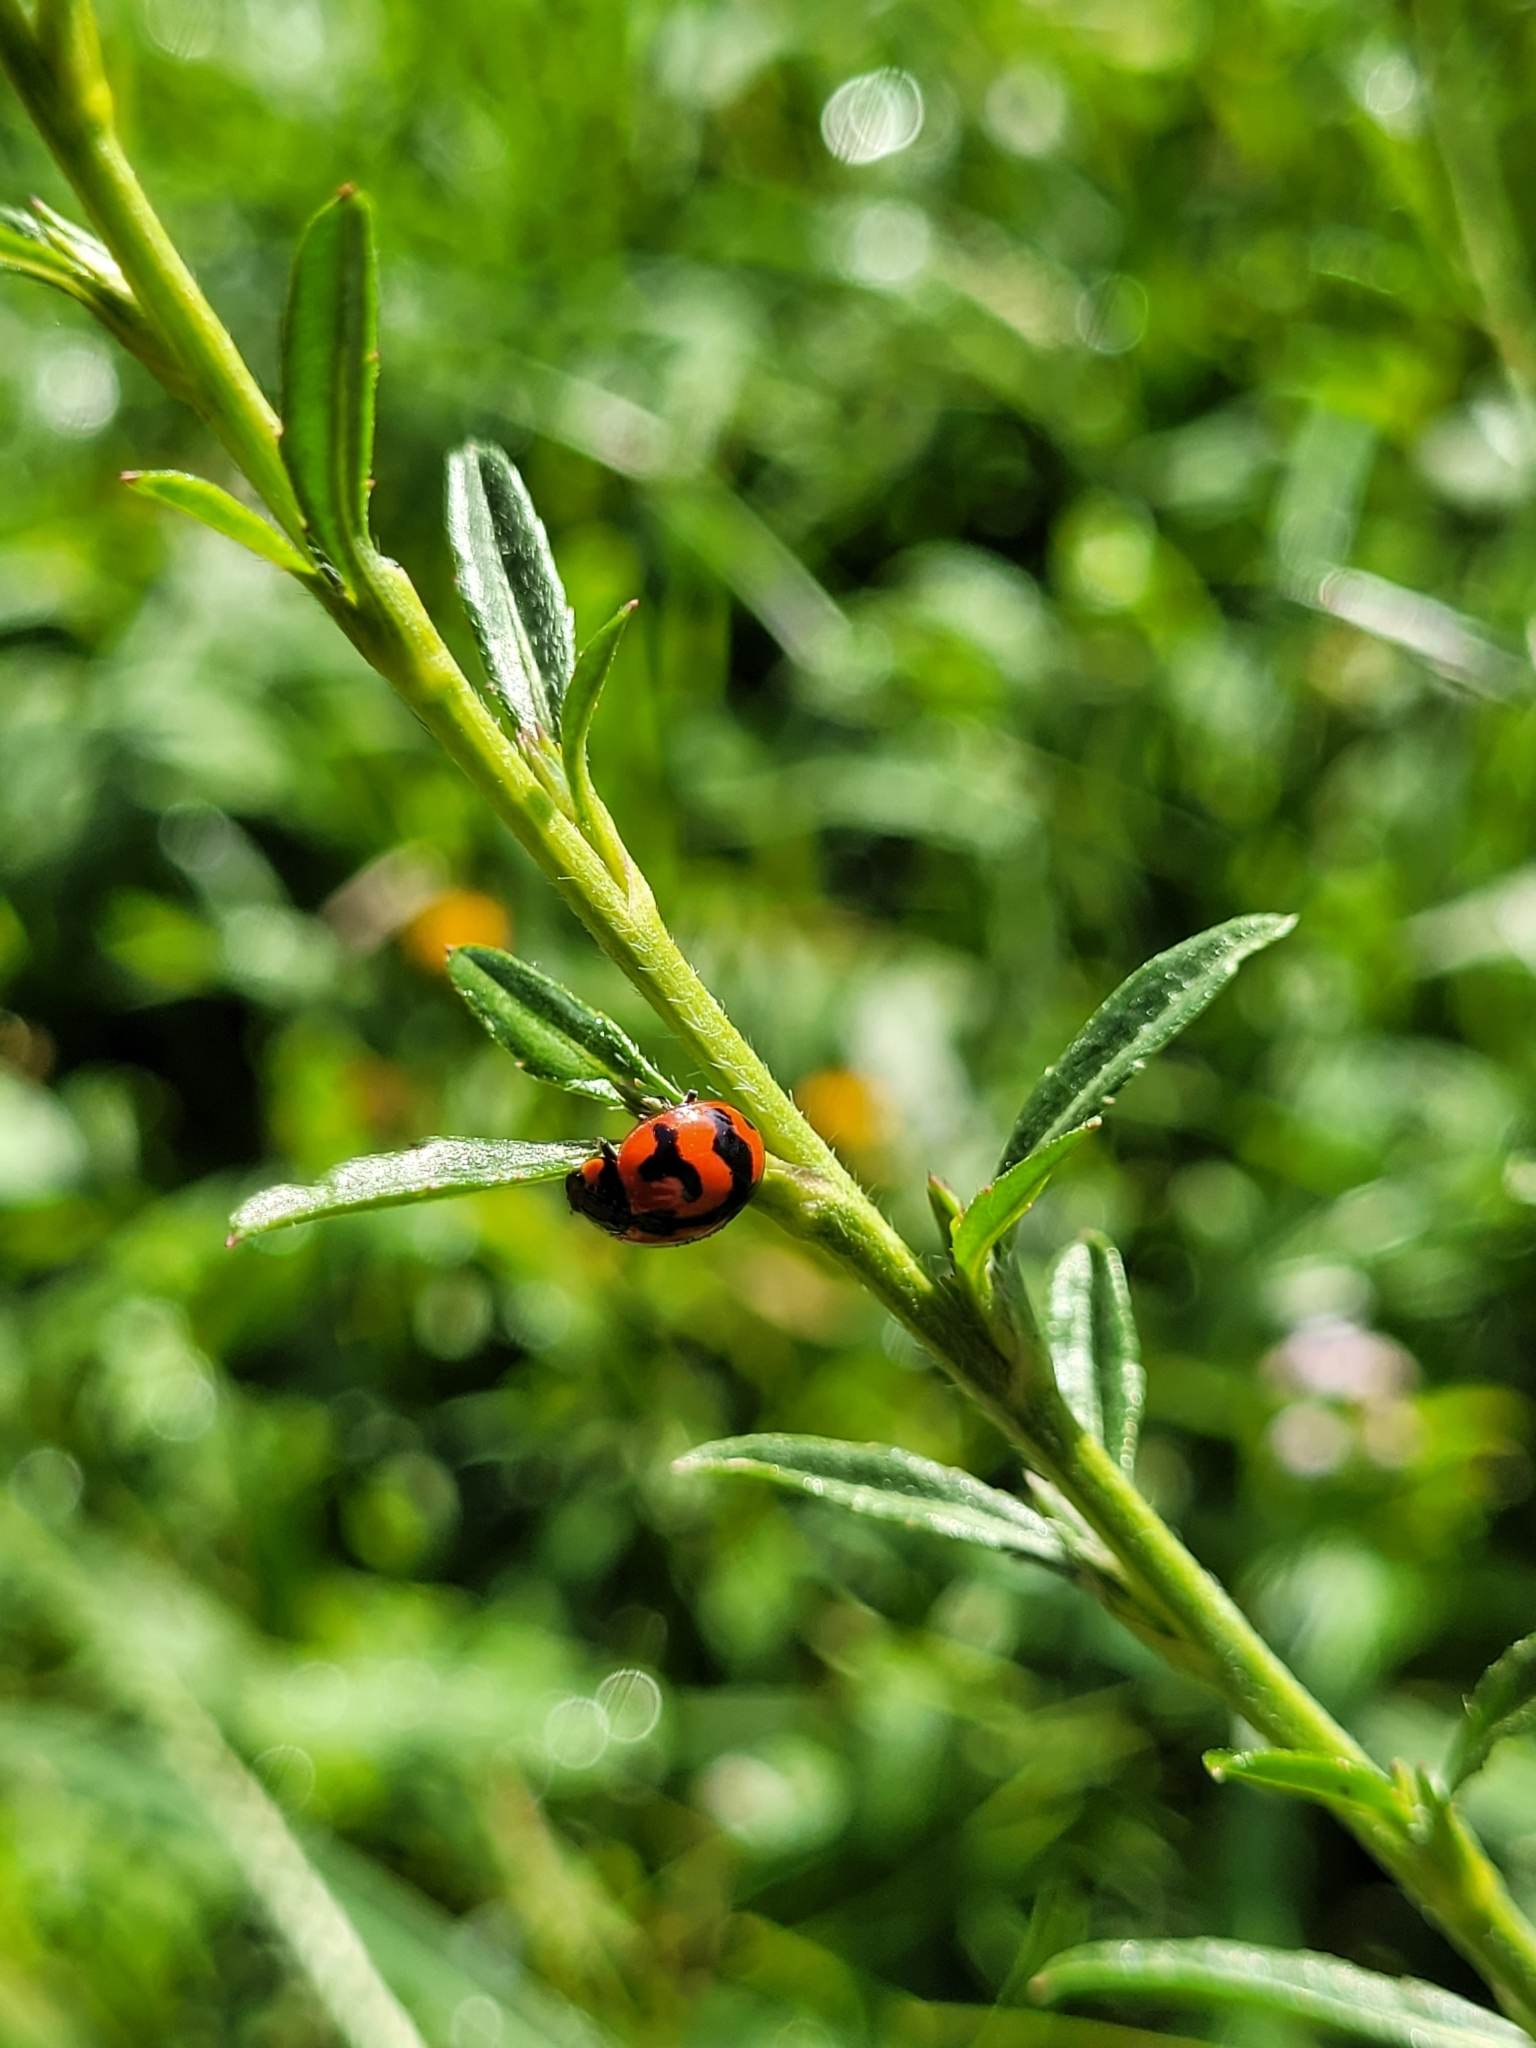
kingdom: Animalia
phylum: Arthropoda
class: Insecta
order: Coleoptera
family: Coccinellidae
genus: Coccinella
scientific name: Coccinella transversalis
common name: Transverse lady beetle
